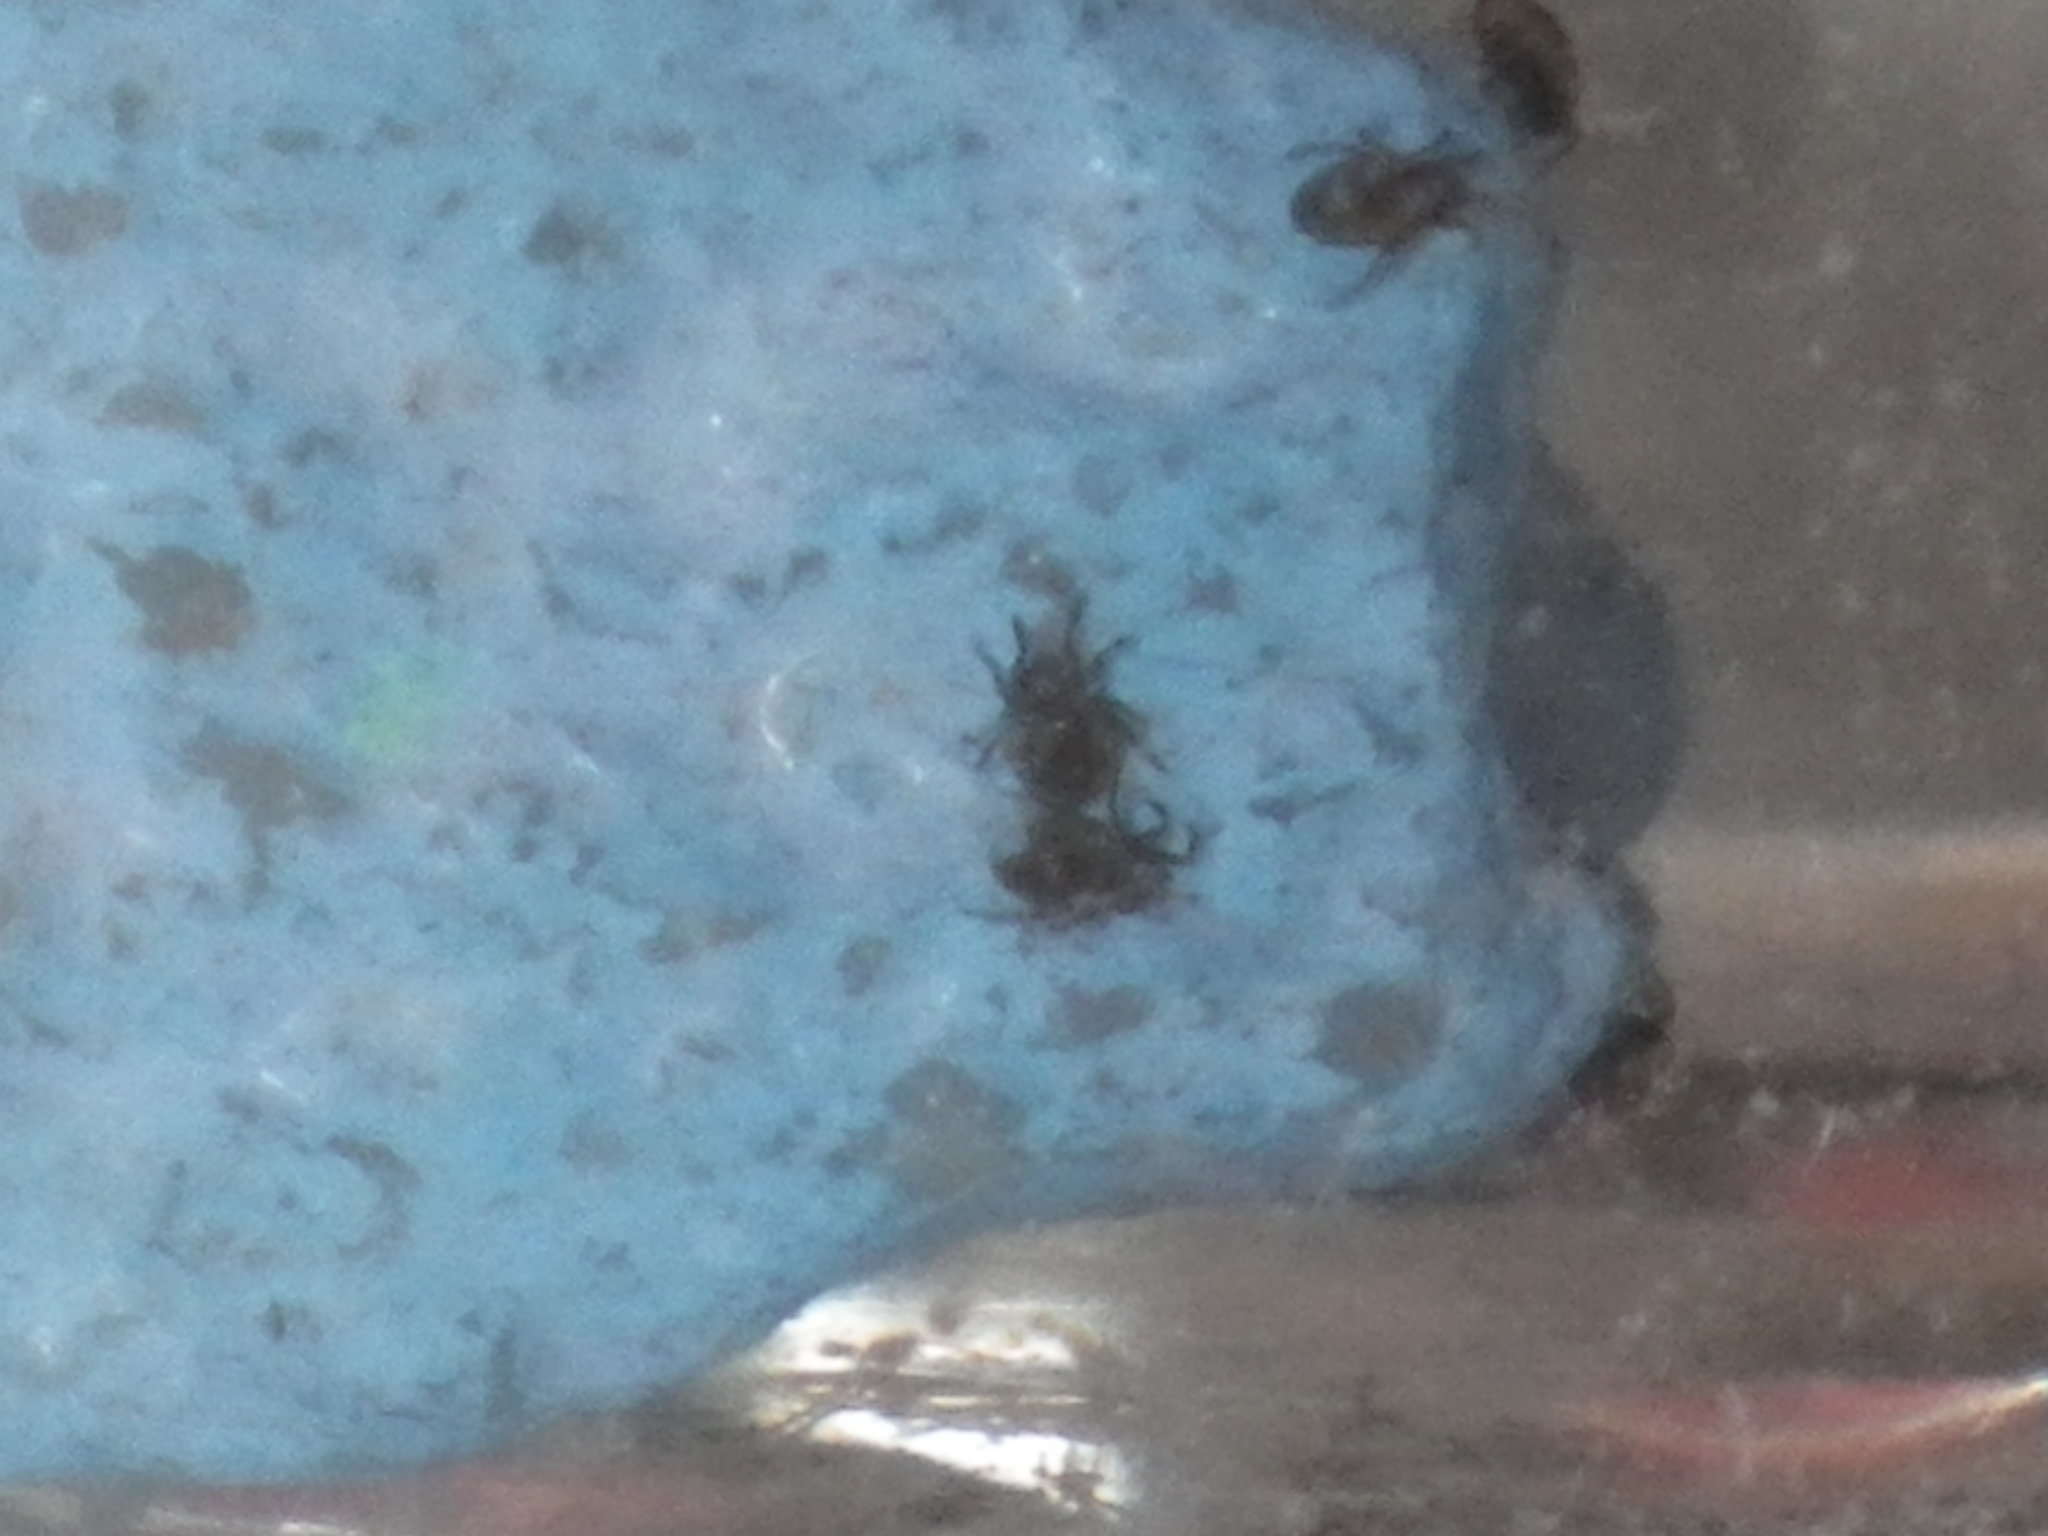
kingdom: Animalia
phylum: Arthropoda
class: Arachnida
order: Sarcoptiformes
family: Hydrozetidae
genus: Hydrozetes
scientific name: Hydrozetes
